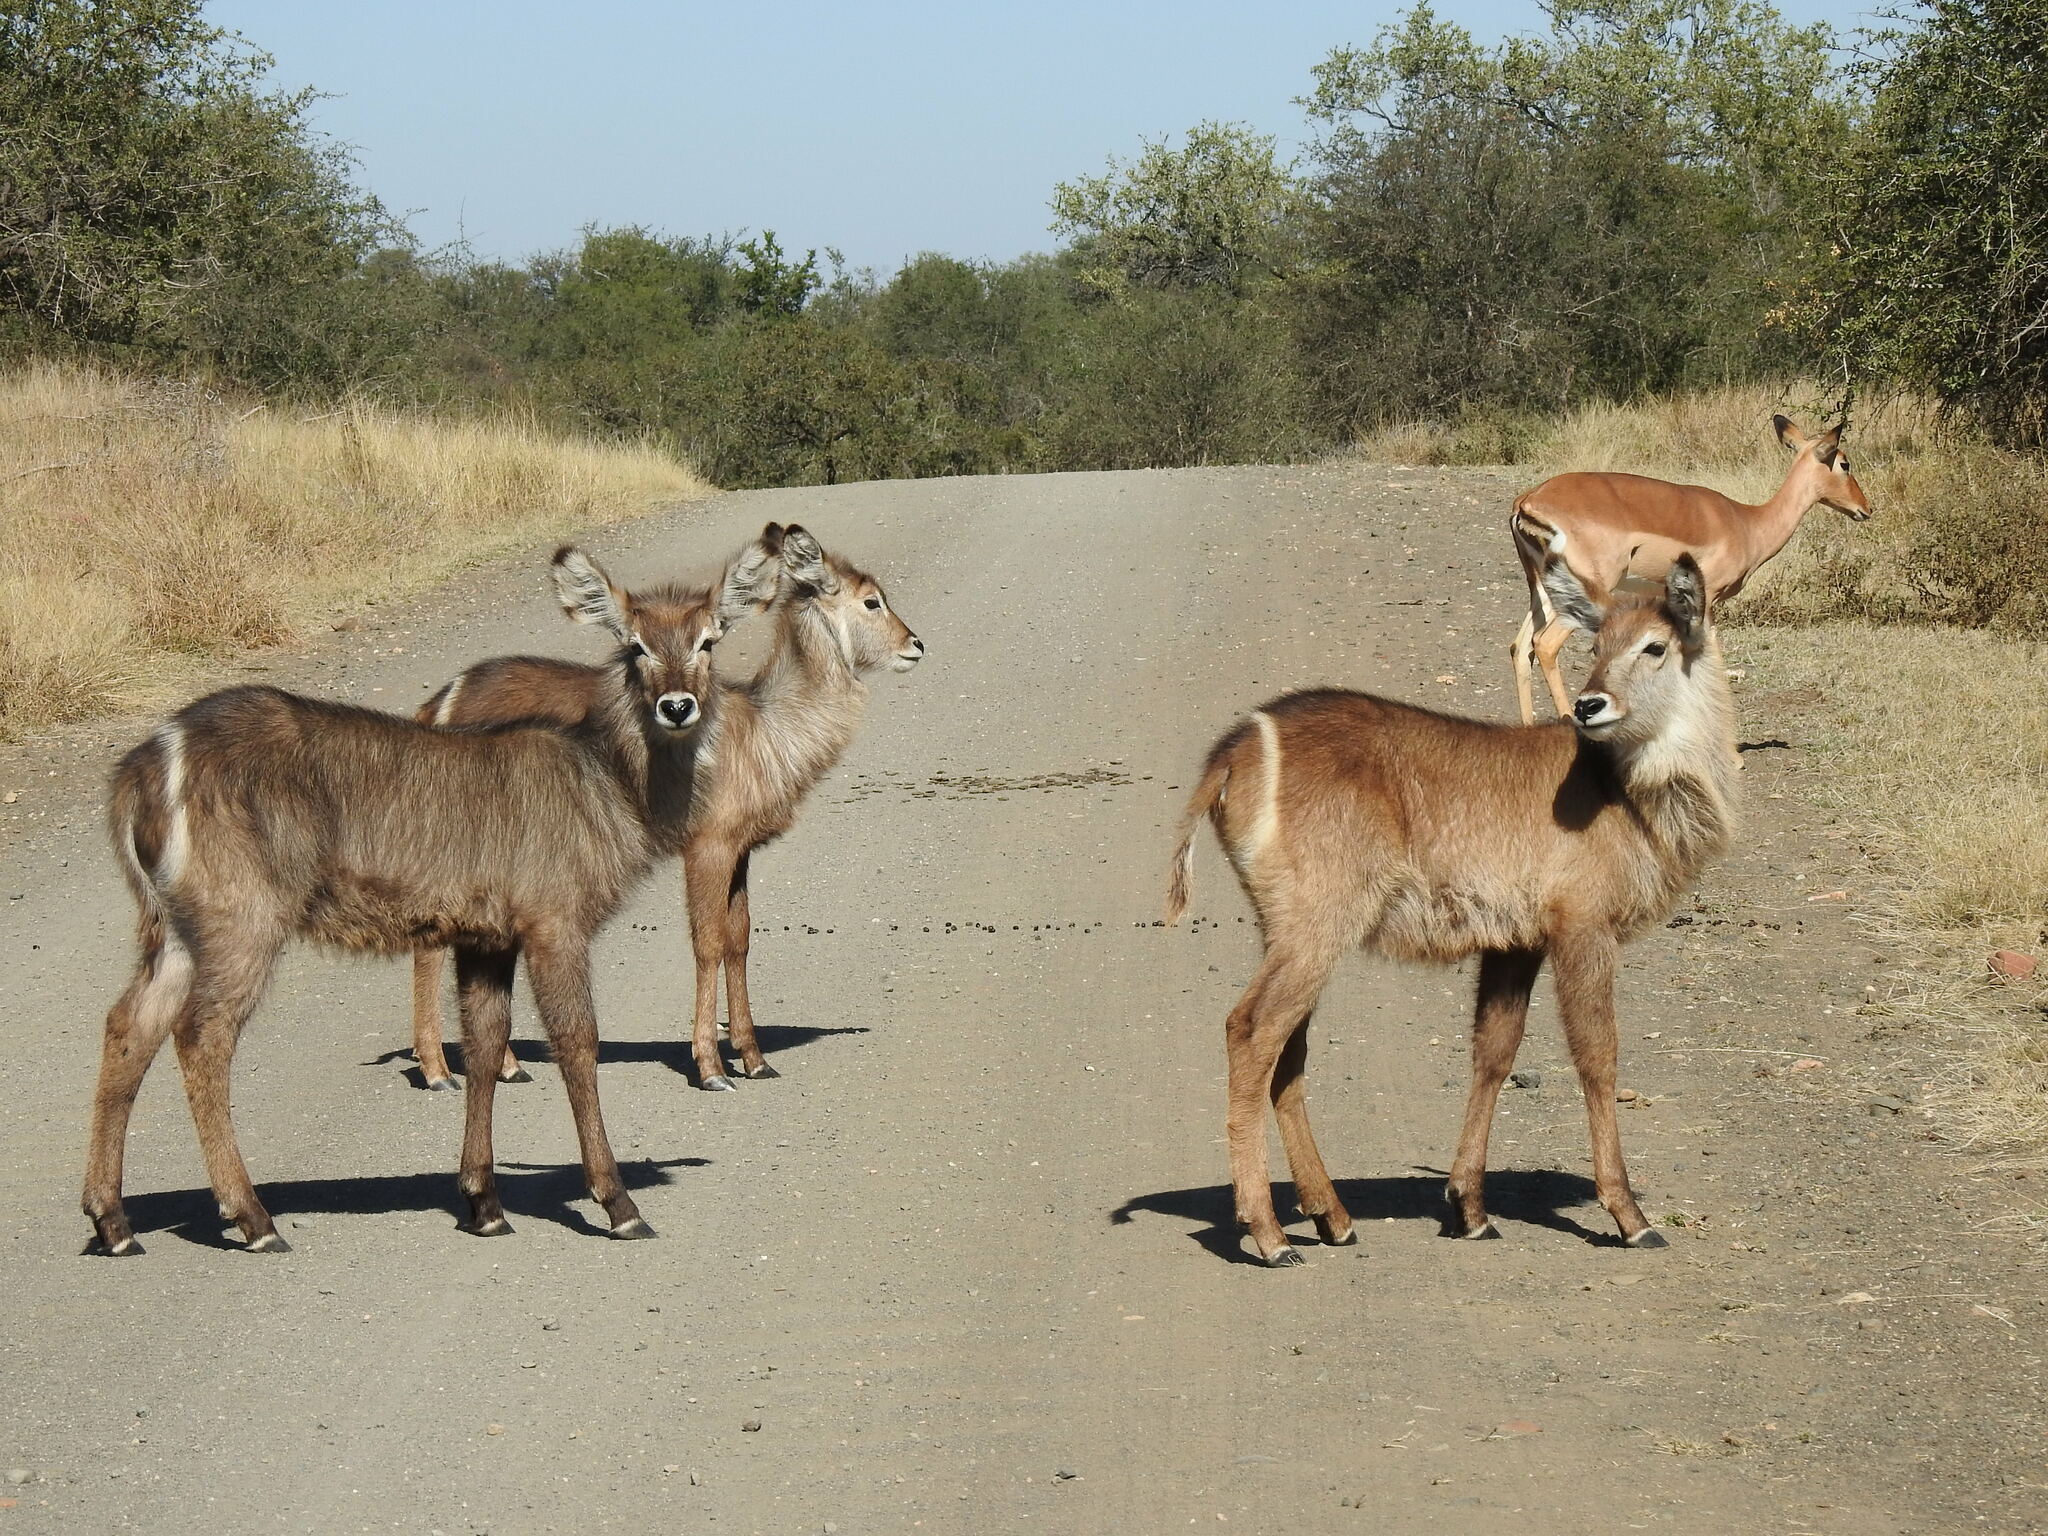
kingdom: Animalia
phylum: Chordata
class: Mammalia
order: Artiodactyla
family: Bovidae
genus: Kobus
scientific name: Kobus ellipsiprymnus
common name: Waterbuck
